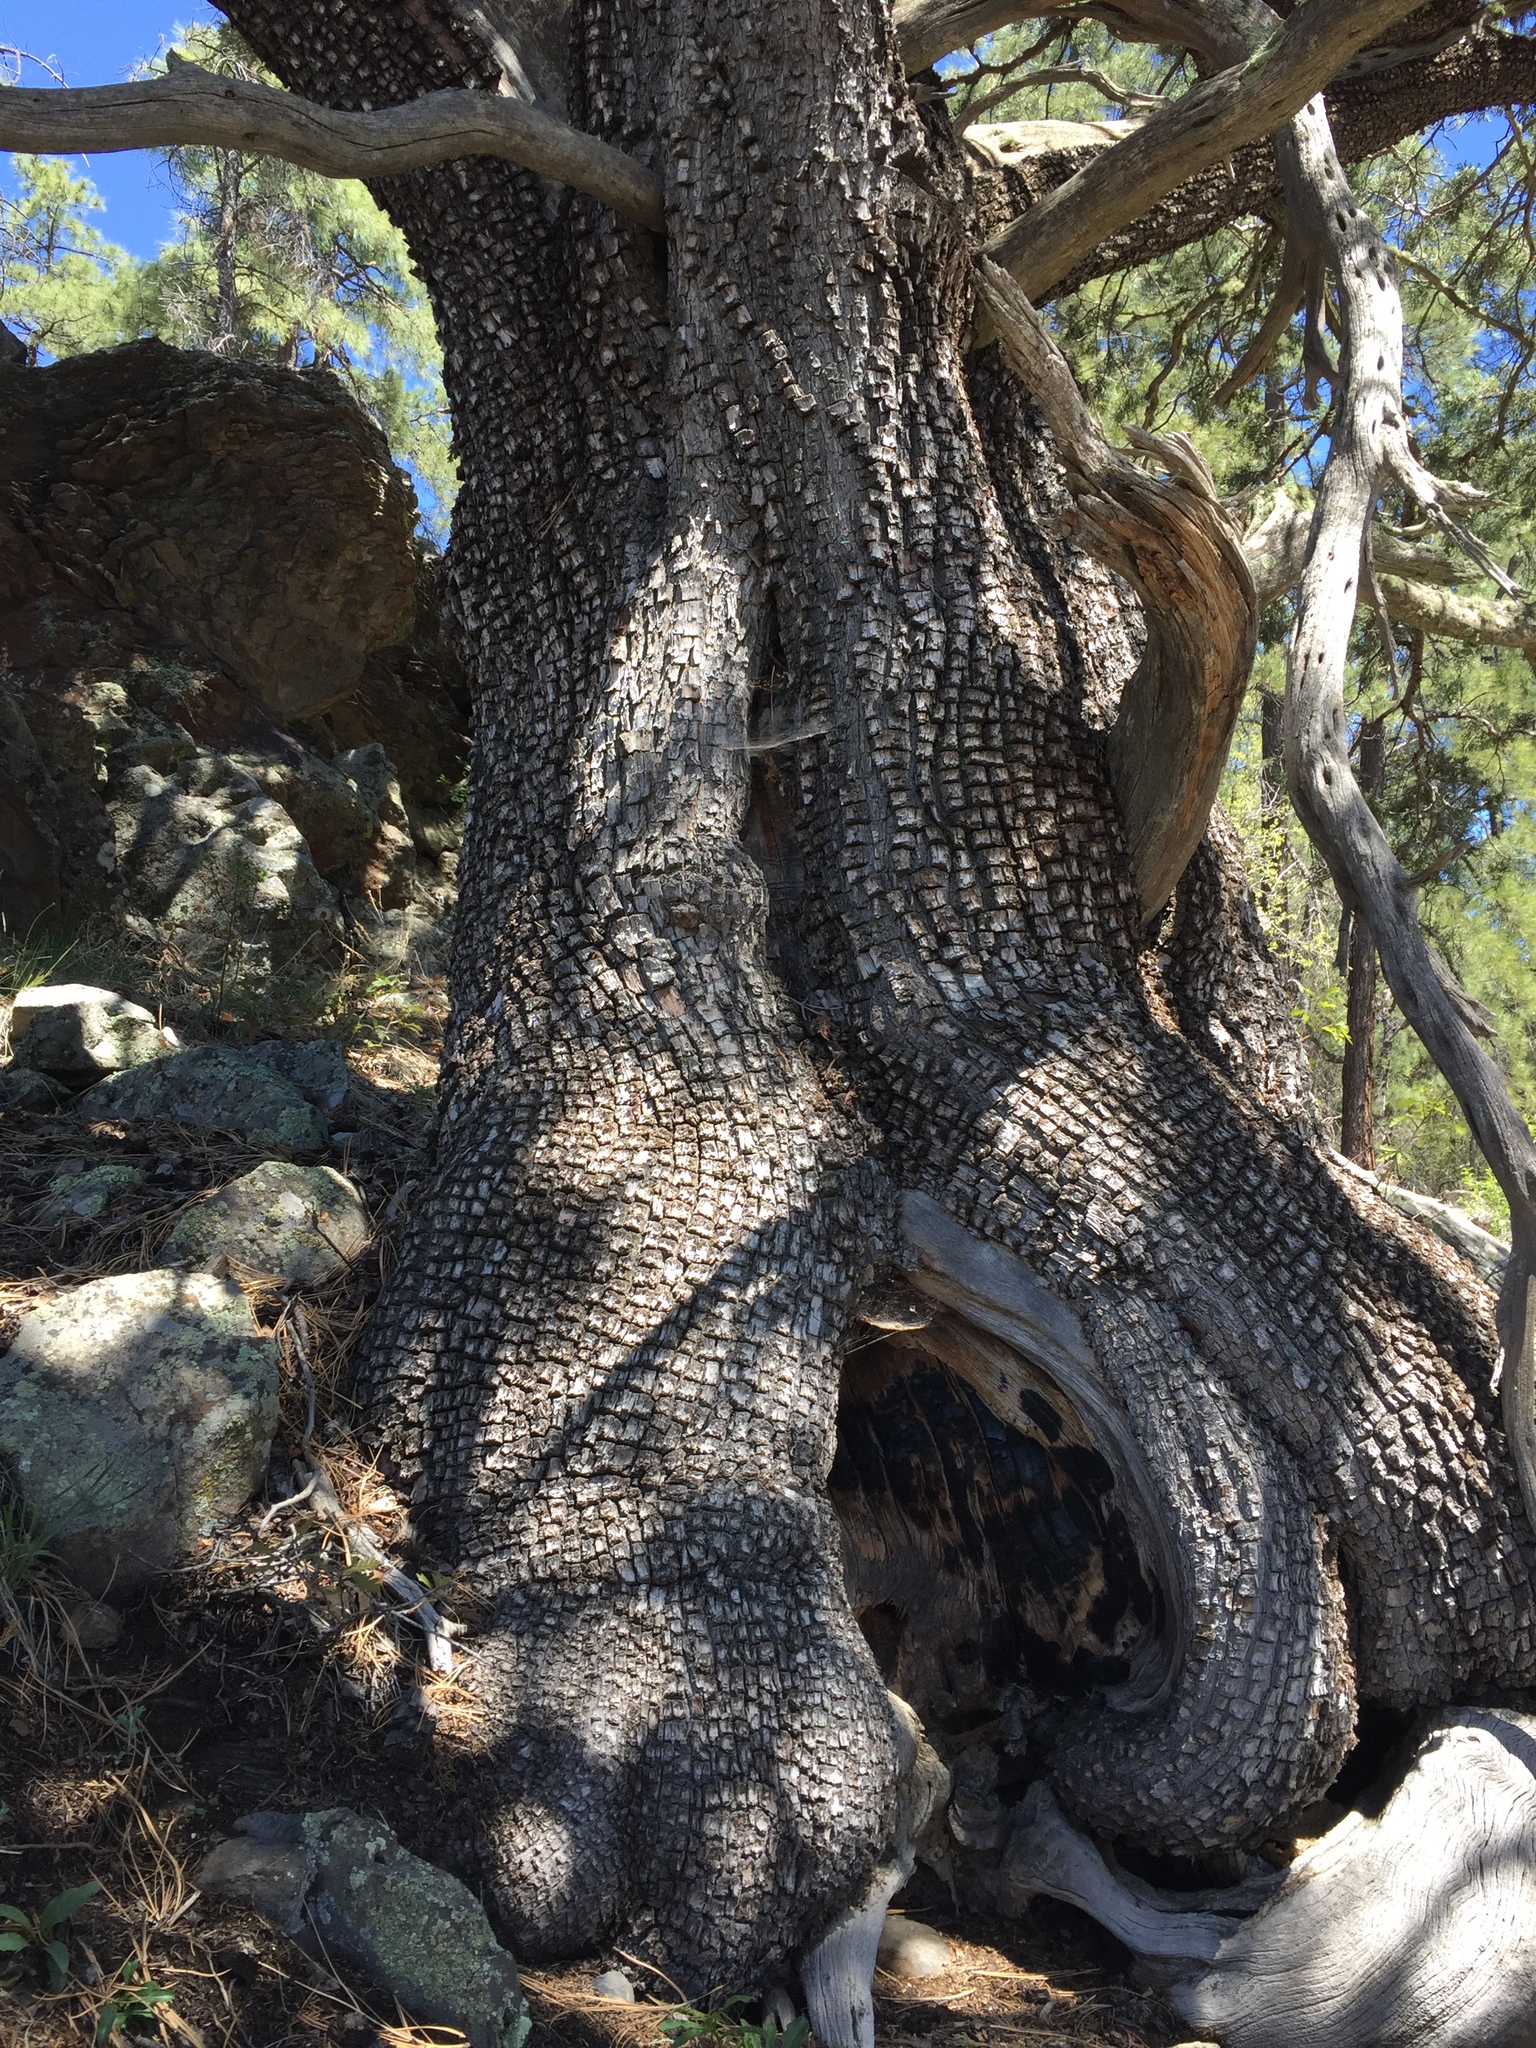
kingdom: Plantae
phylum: Tracheophyta
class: Pinopsida
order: Pinales
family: Cupressaceae
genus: Juniperus
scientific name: Juniperus deppeana
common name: Alligator juniper
